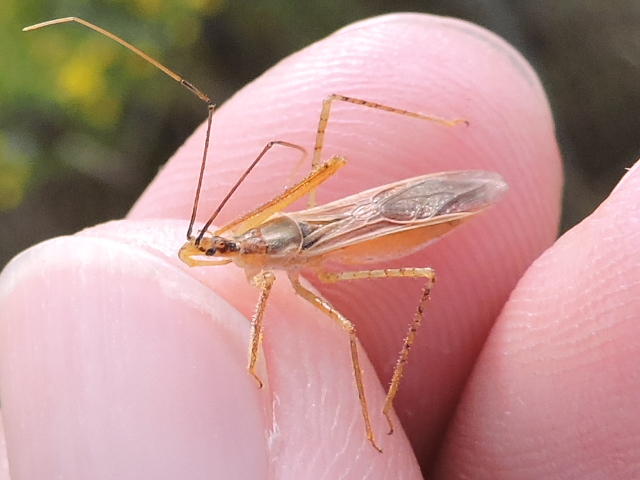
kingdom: Animalia
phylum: Arthropoda
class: Insecta
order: Hemiptera
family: Reduviidae
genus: Zelus
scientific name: Zelus cervicalis
